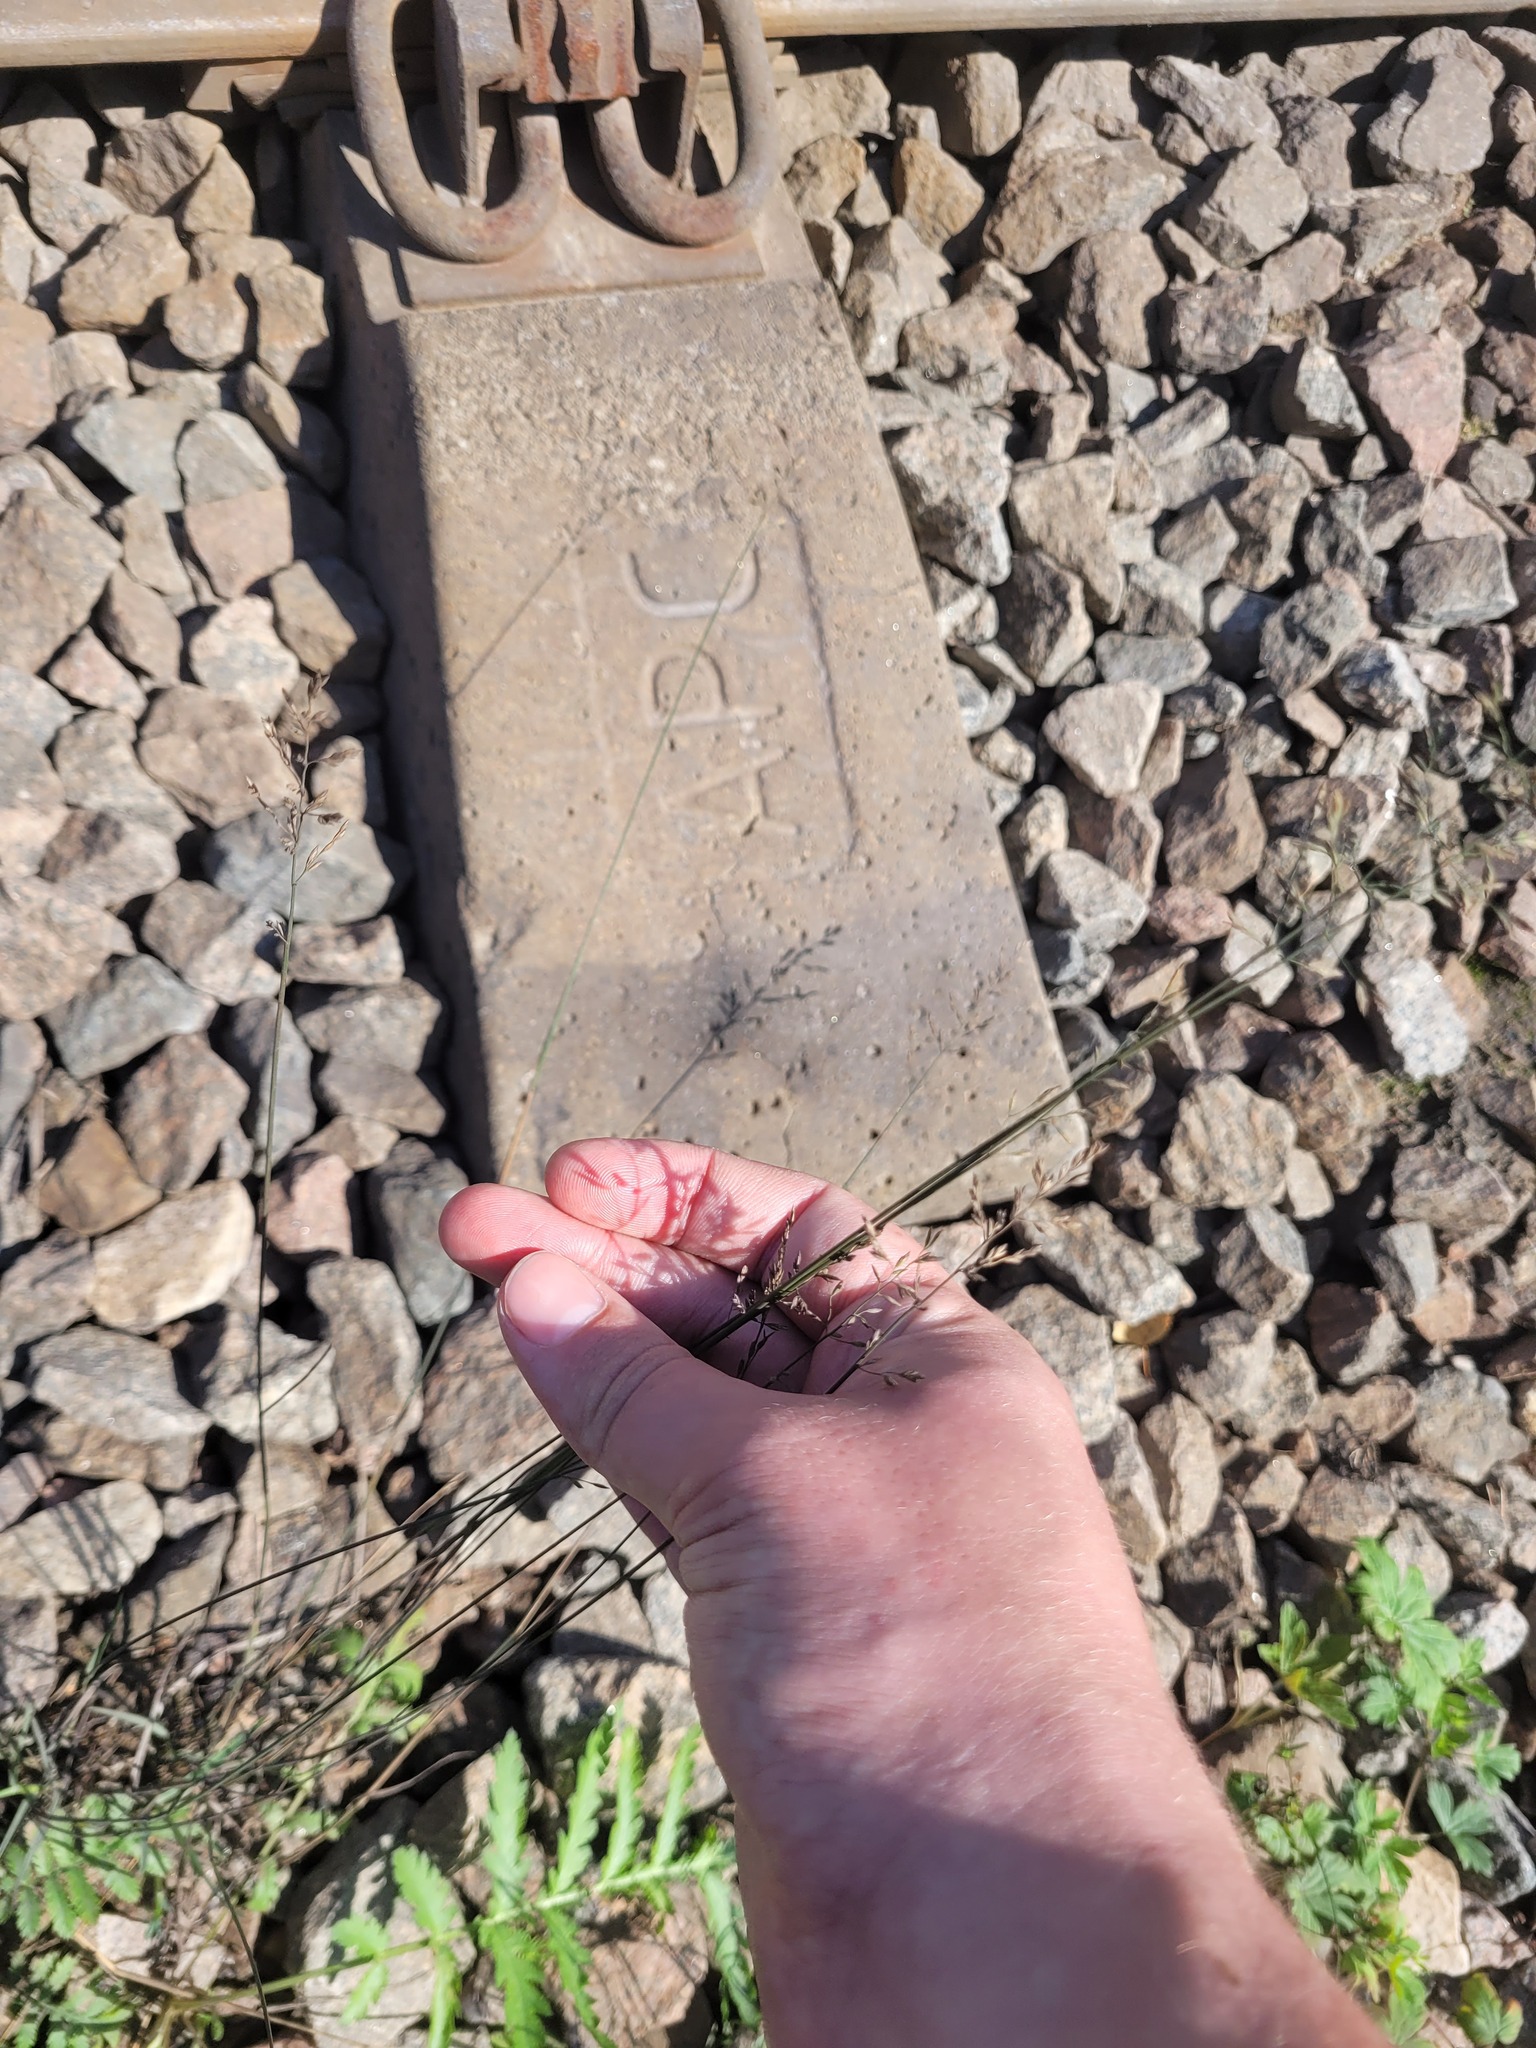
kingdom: Plantae
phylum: Tracheophyta
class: Liliopsida
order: Poales
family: Poaceae
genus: Poa
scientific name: Poa compressa
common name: Canada bluegrass
